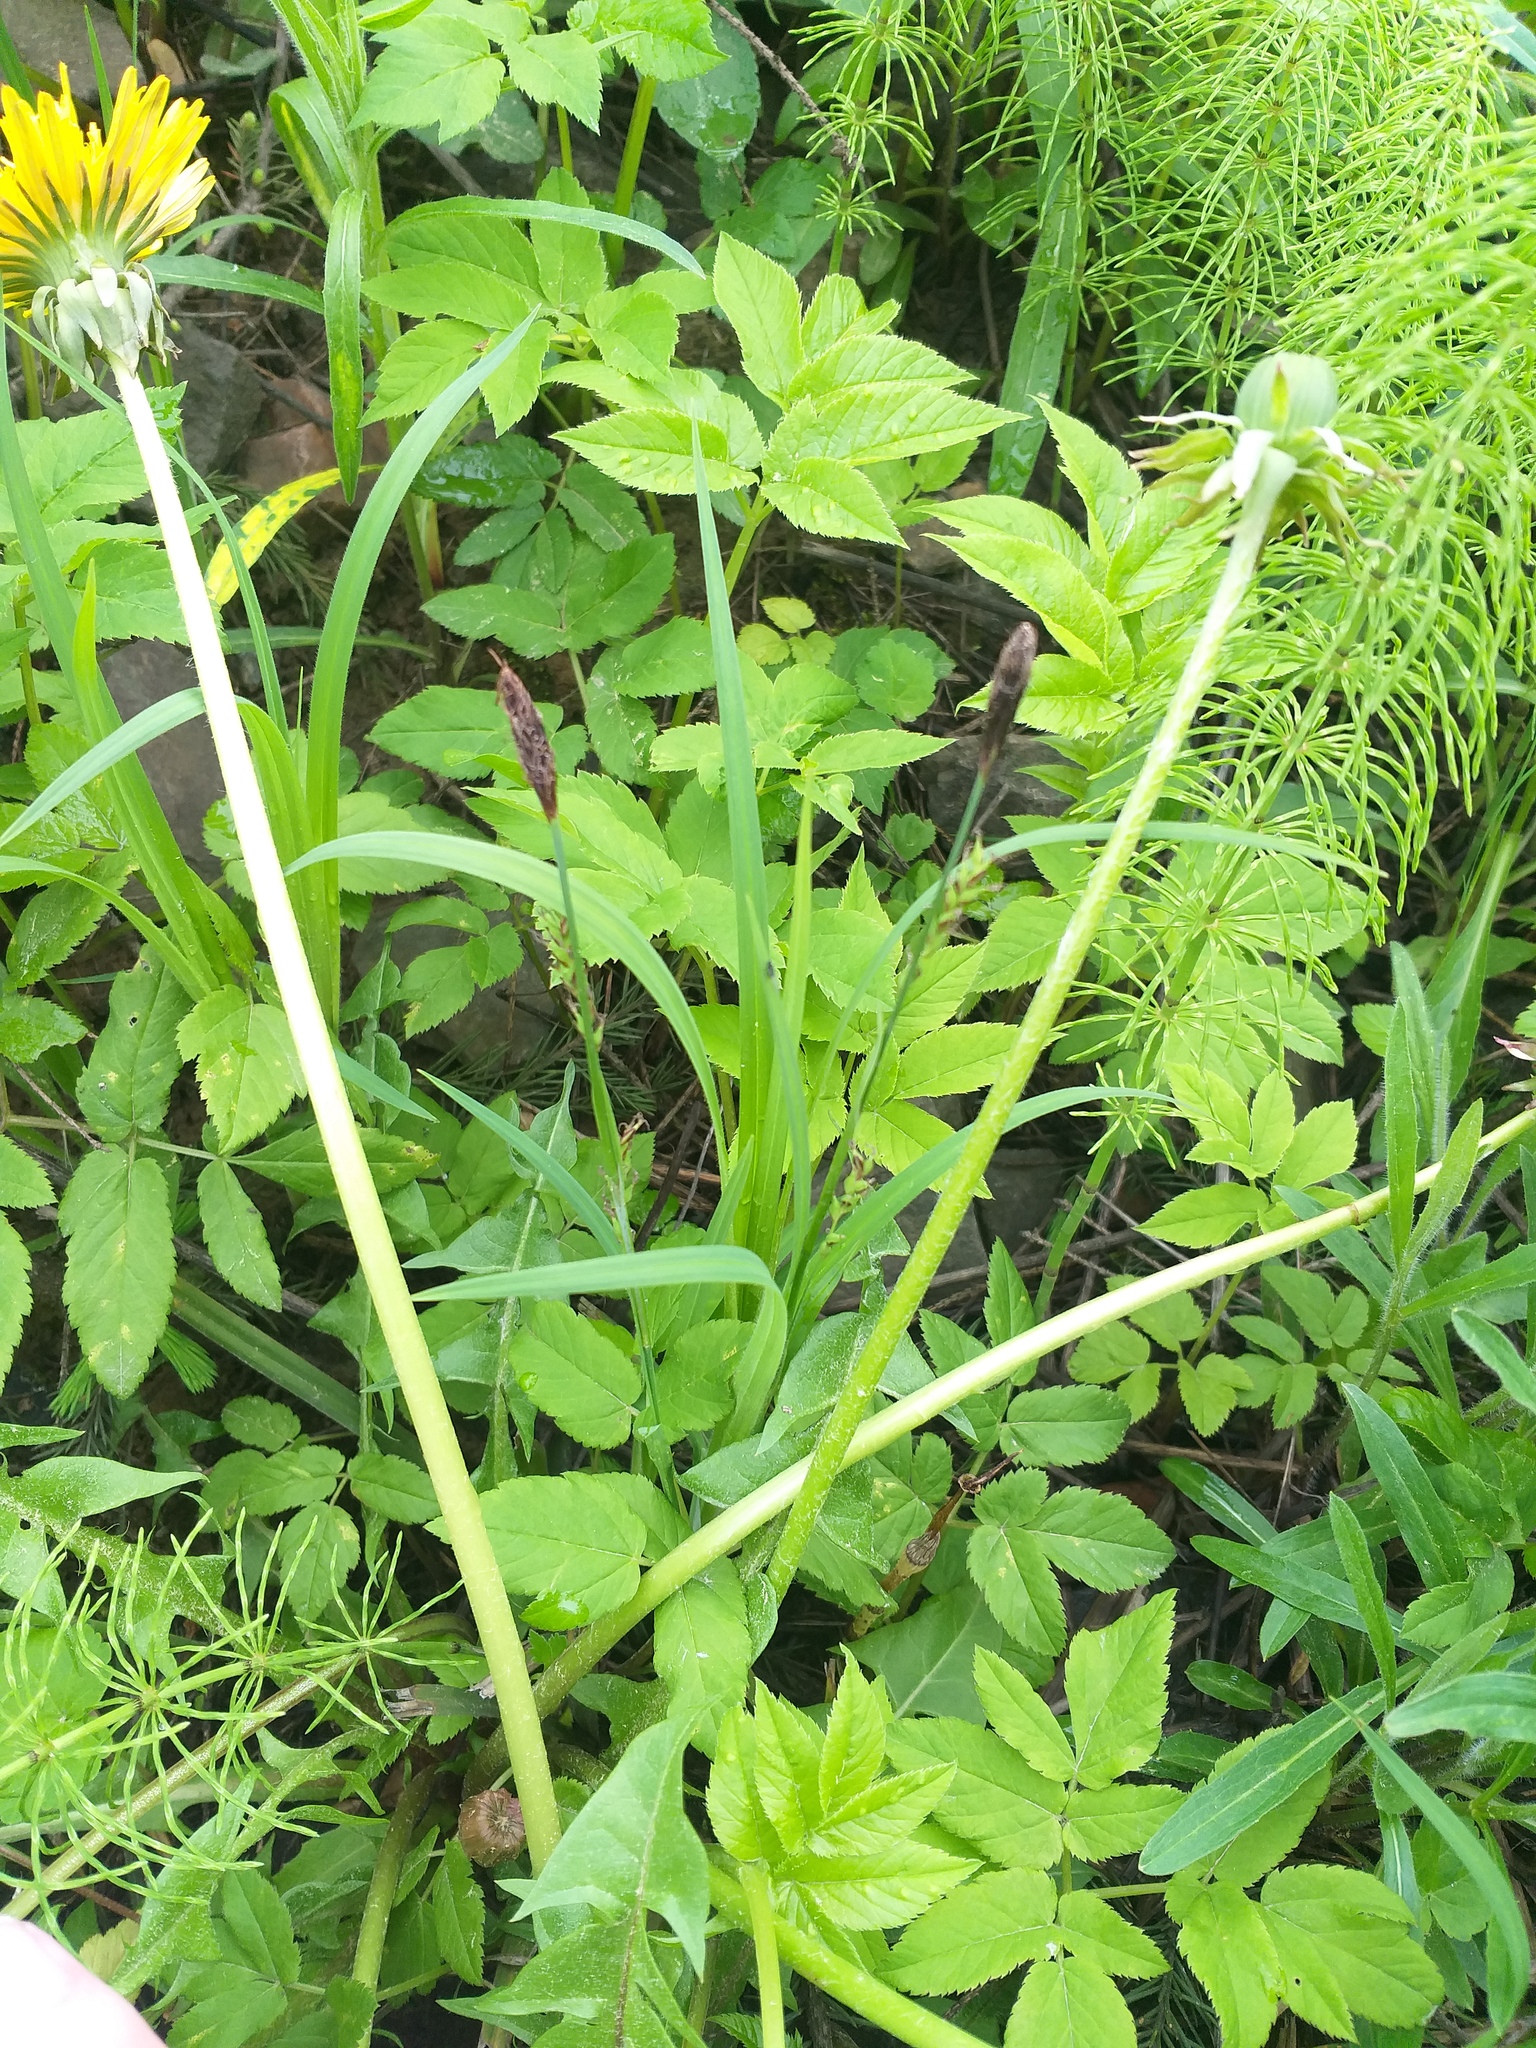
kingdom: Plantae
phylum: Tracheophyta
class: Liliopsida
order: Poales
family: Cyperaceae
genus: Carex
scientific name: Carex pilosa
